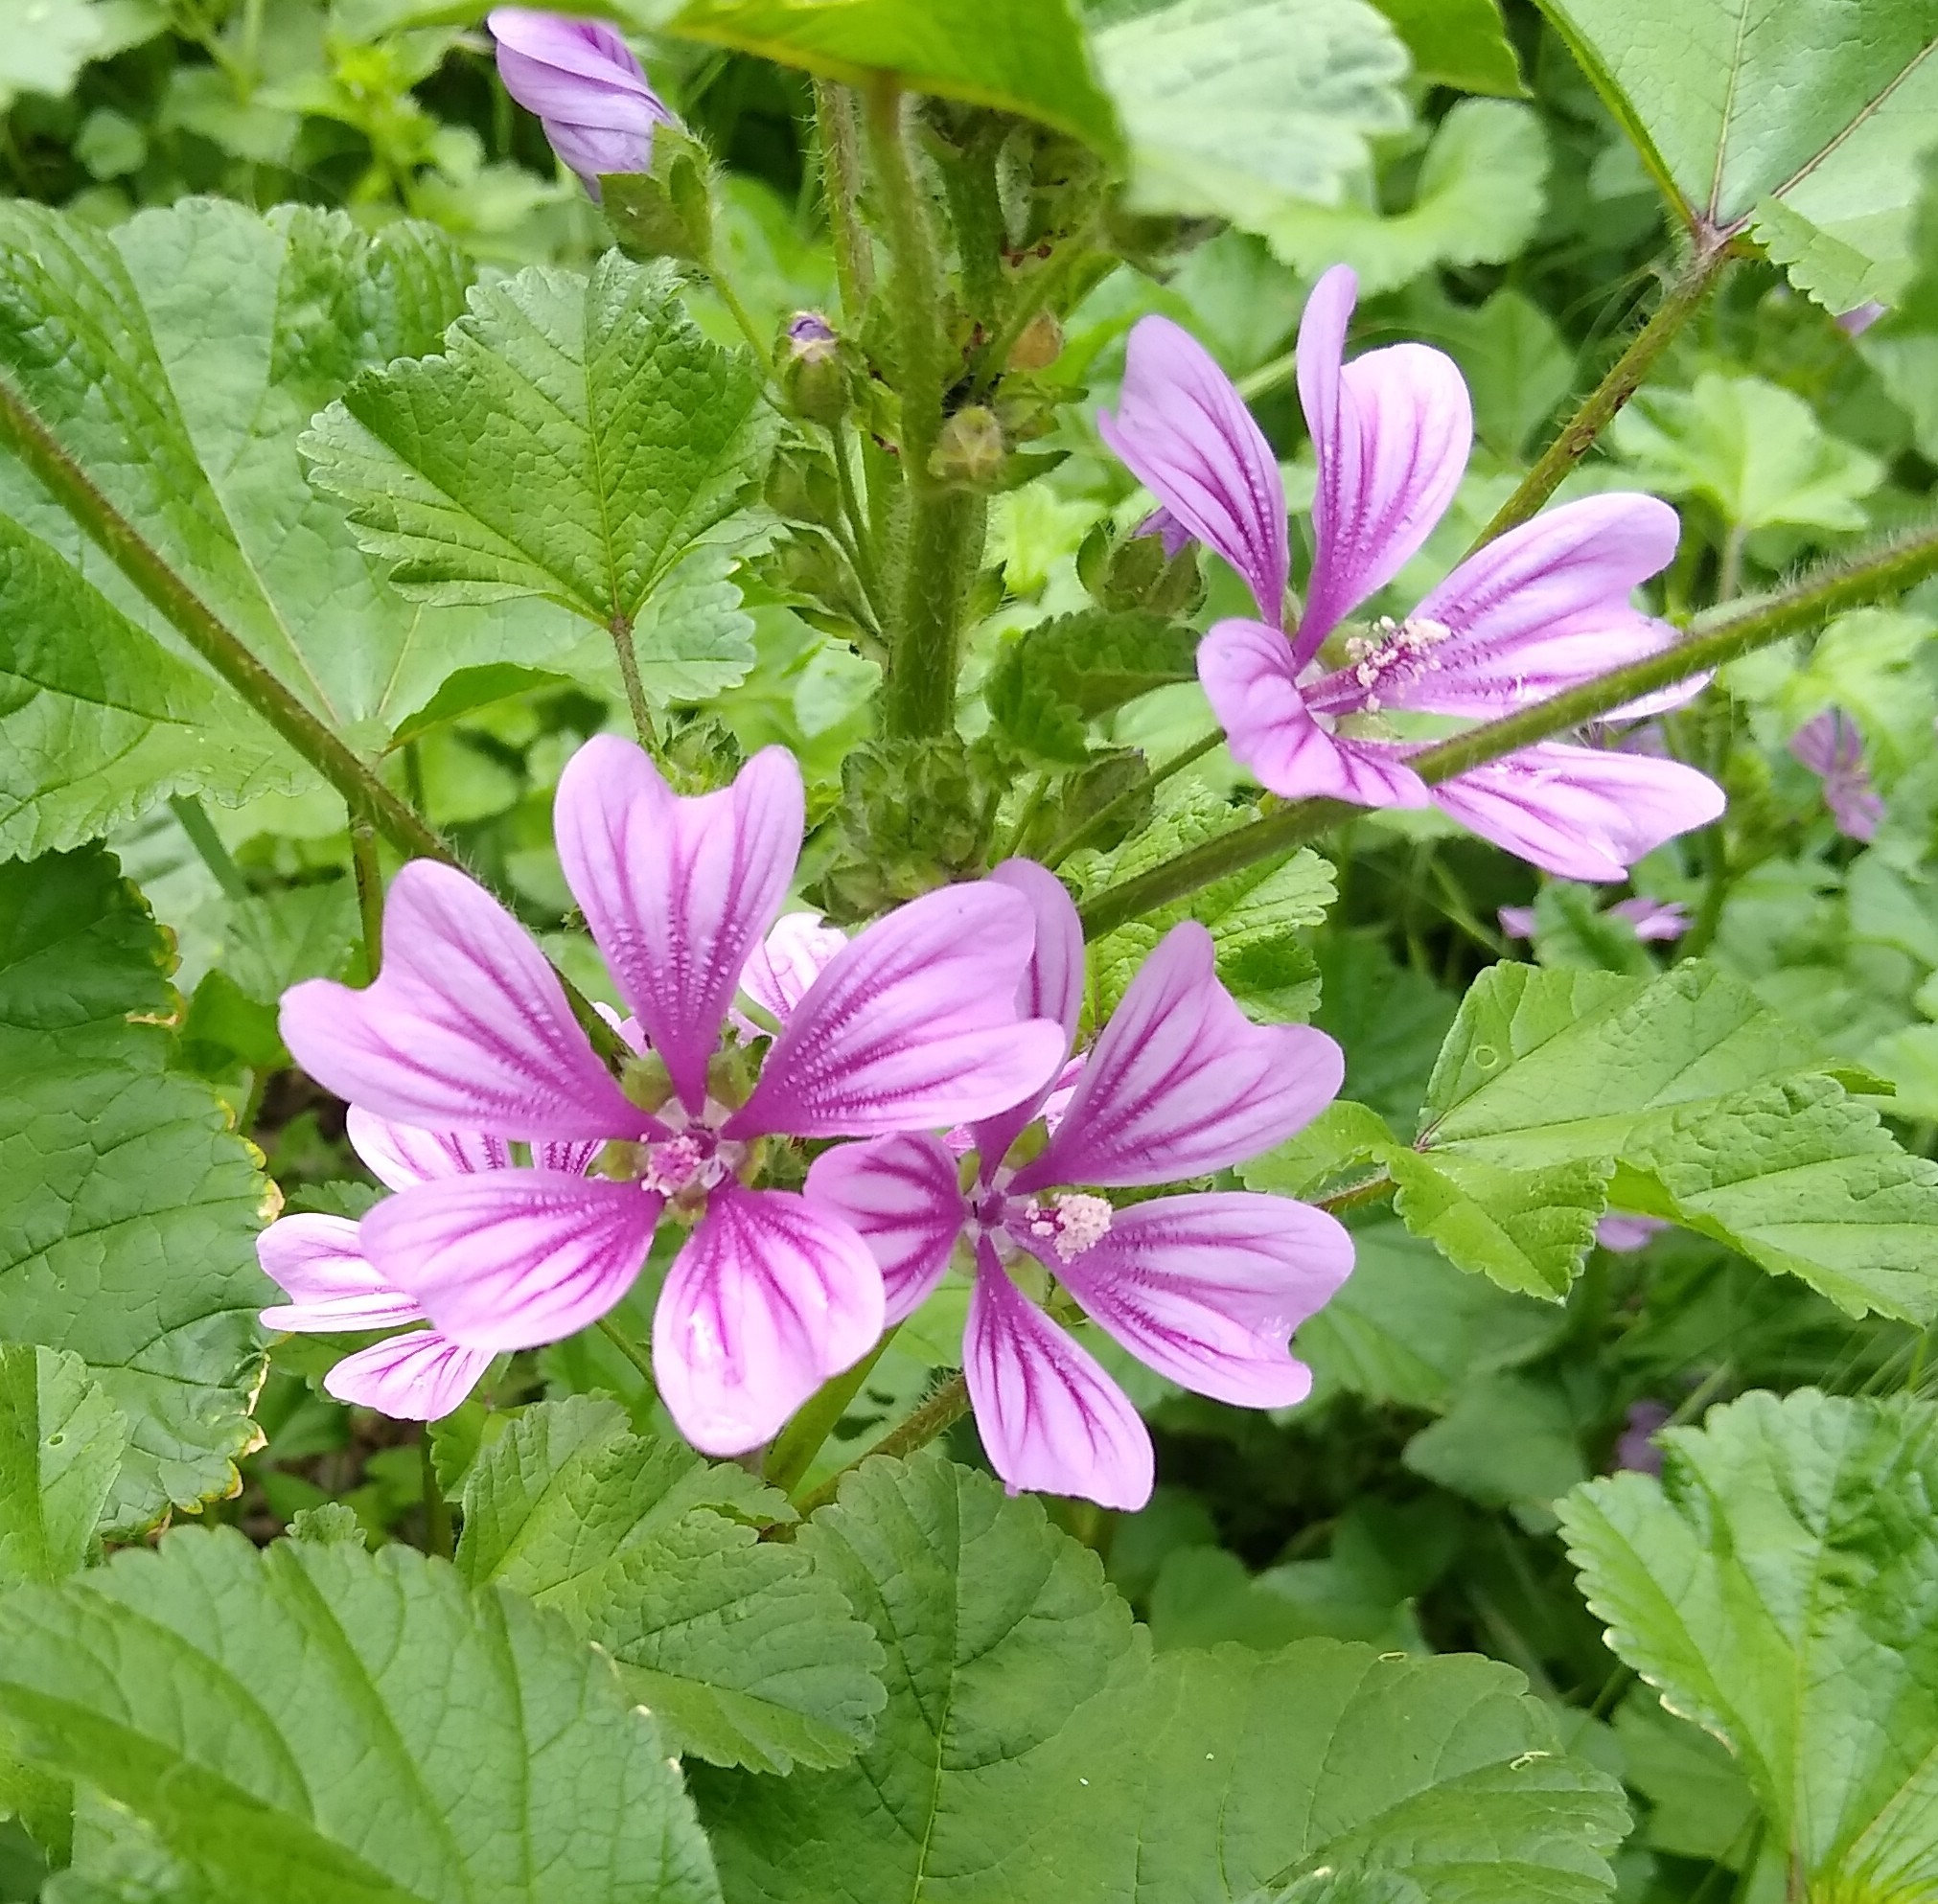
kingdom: Plantae
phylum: Tracheophyta
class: Magnoliopsida
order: Malvales
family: Malvaceae
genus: Malva
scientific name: Malva sylvestris
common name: Common mallow
